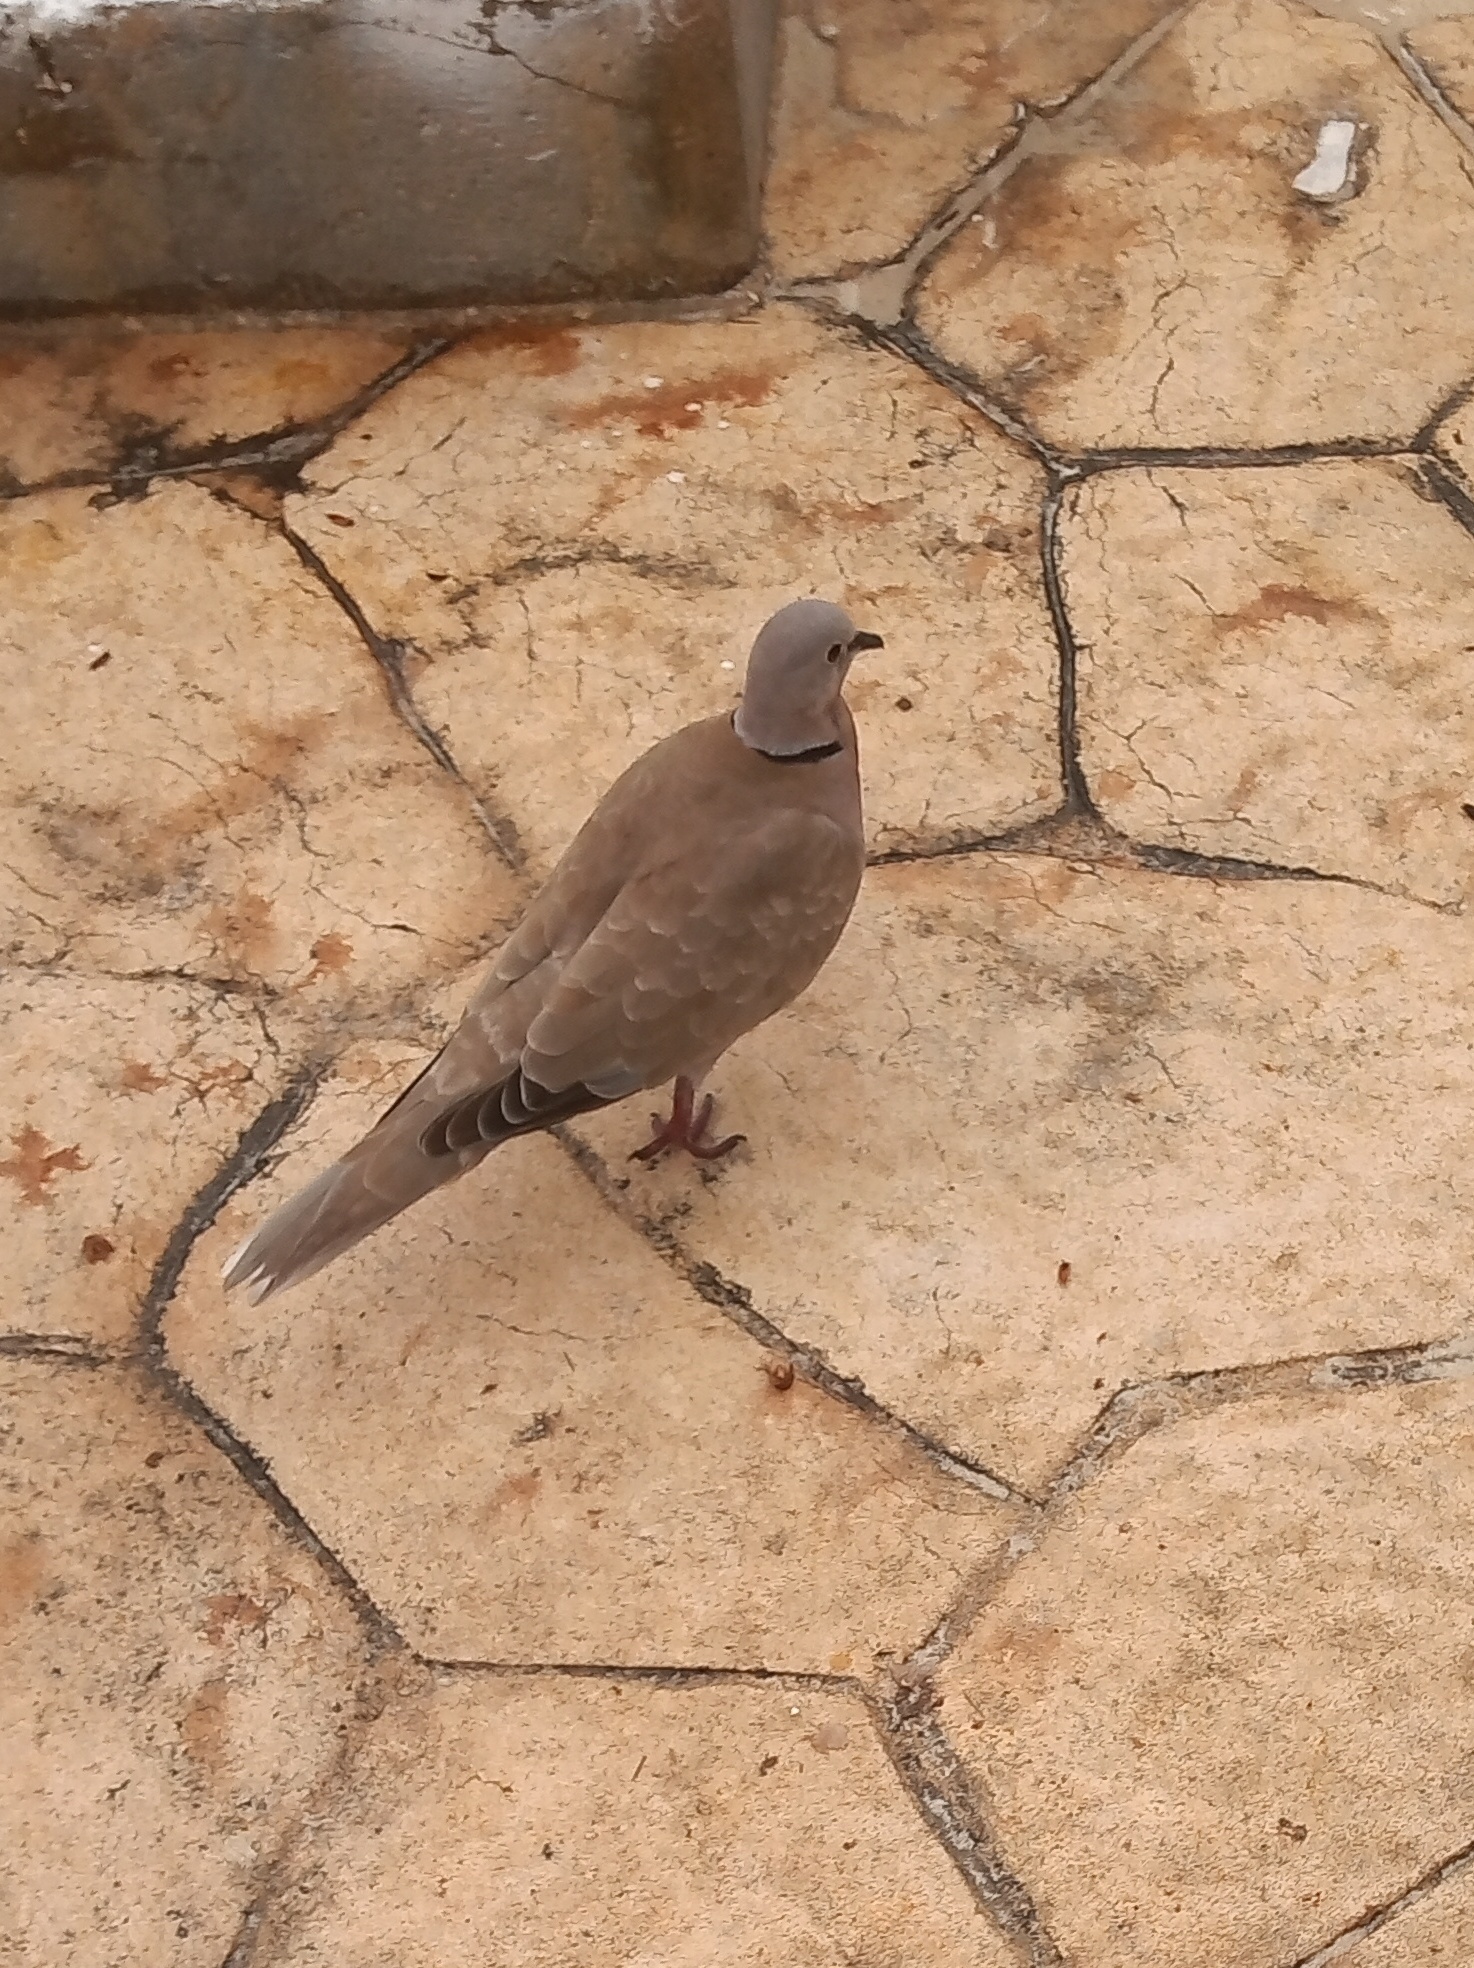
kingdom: Animalia
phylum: Chordata
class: Aves
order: Columbiformes
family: Columbidae
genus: Streptopelia
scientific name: Streptopelia decaocto
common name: Eurasian collared dove
